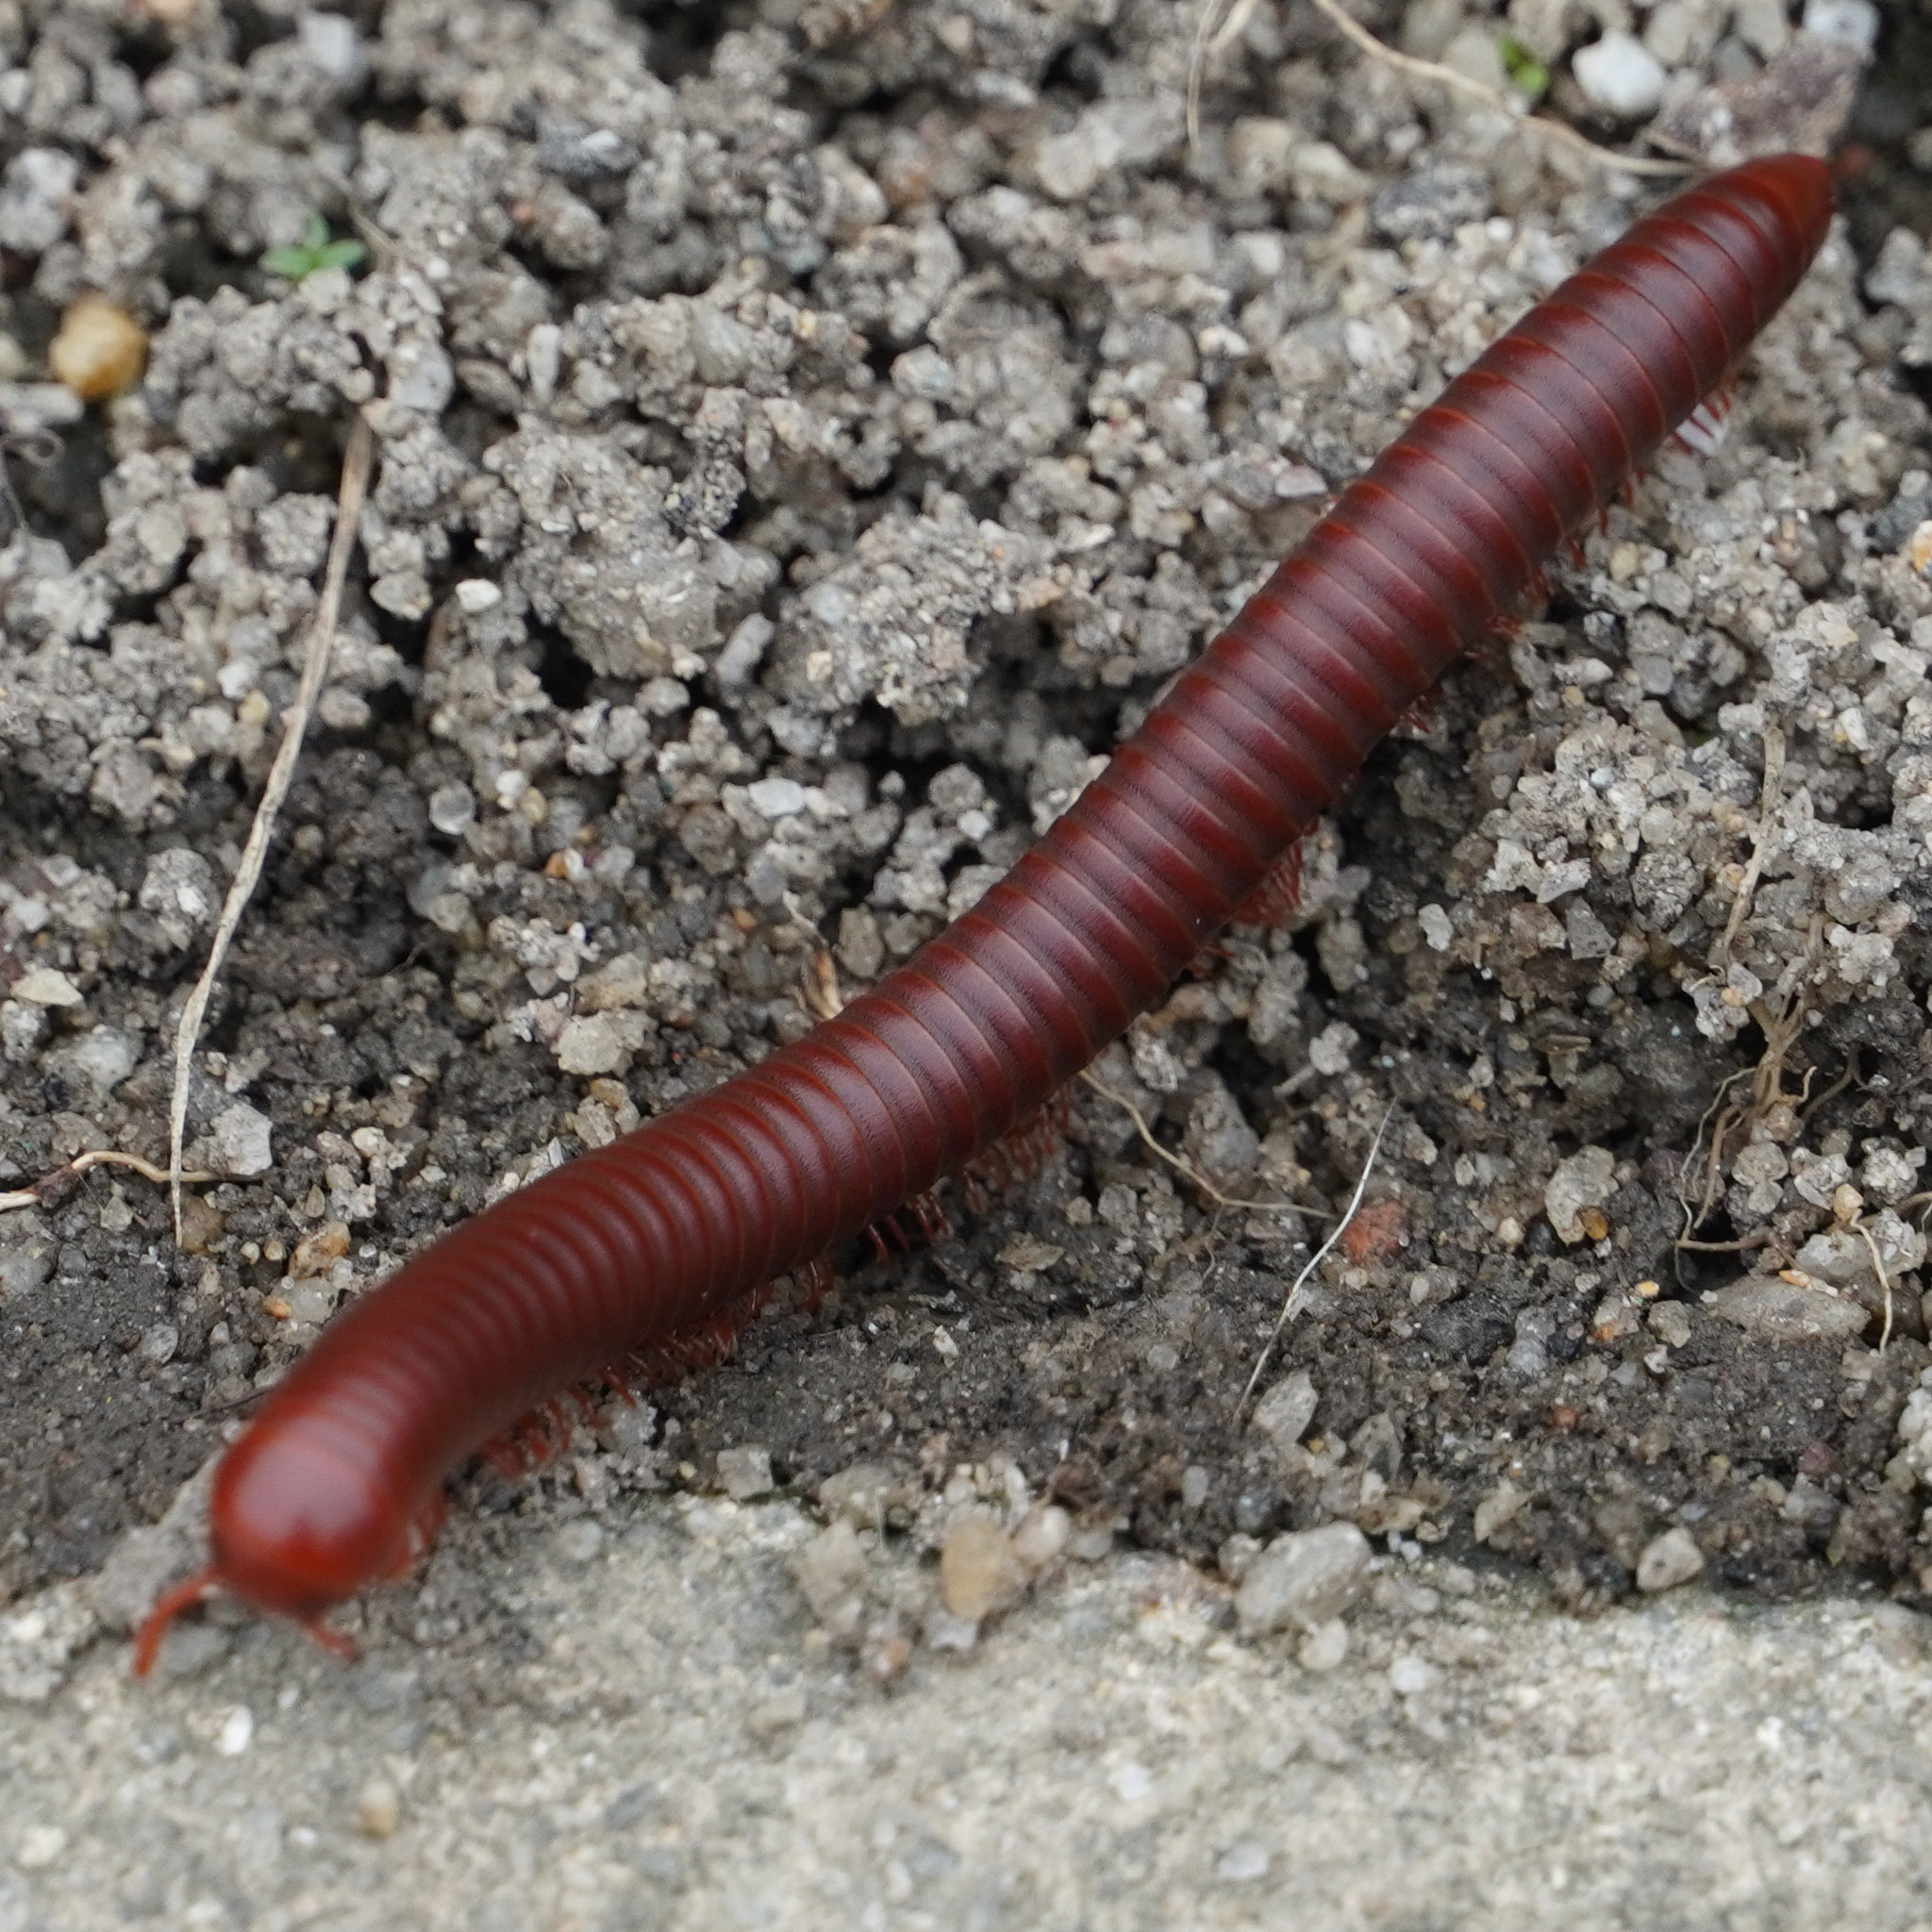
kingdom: Animalia
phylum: Arthropoda
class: Diplopoda
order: Spirobolida
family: Pachybolidae
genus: Trigoniulus
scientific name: Trigoniulus corallinus
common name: Millipede
